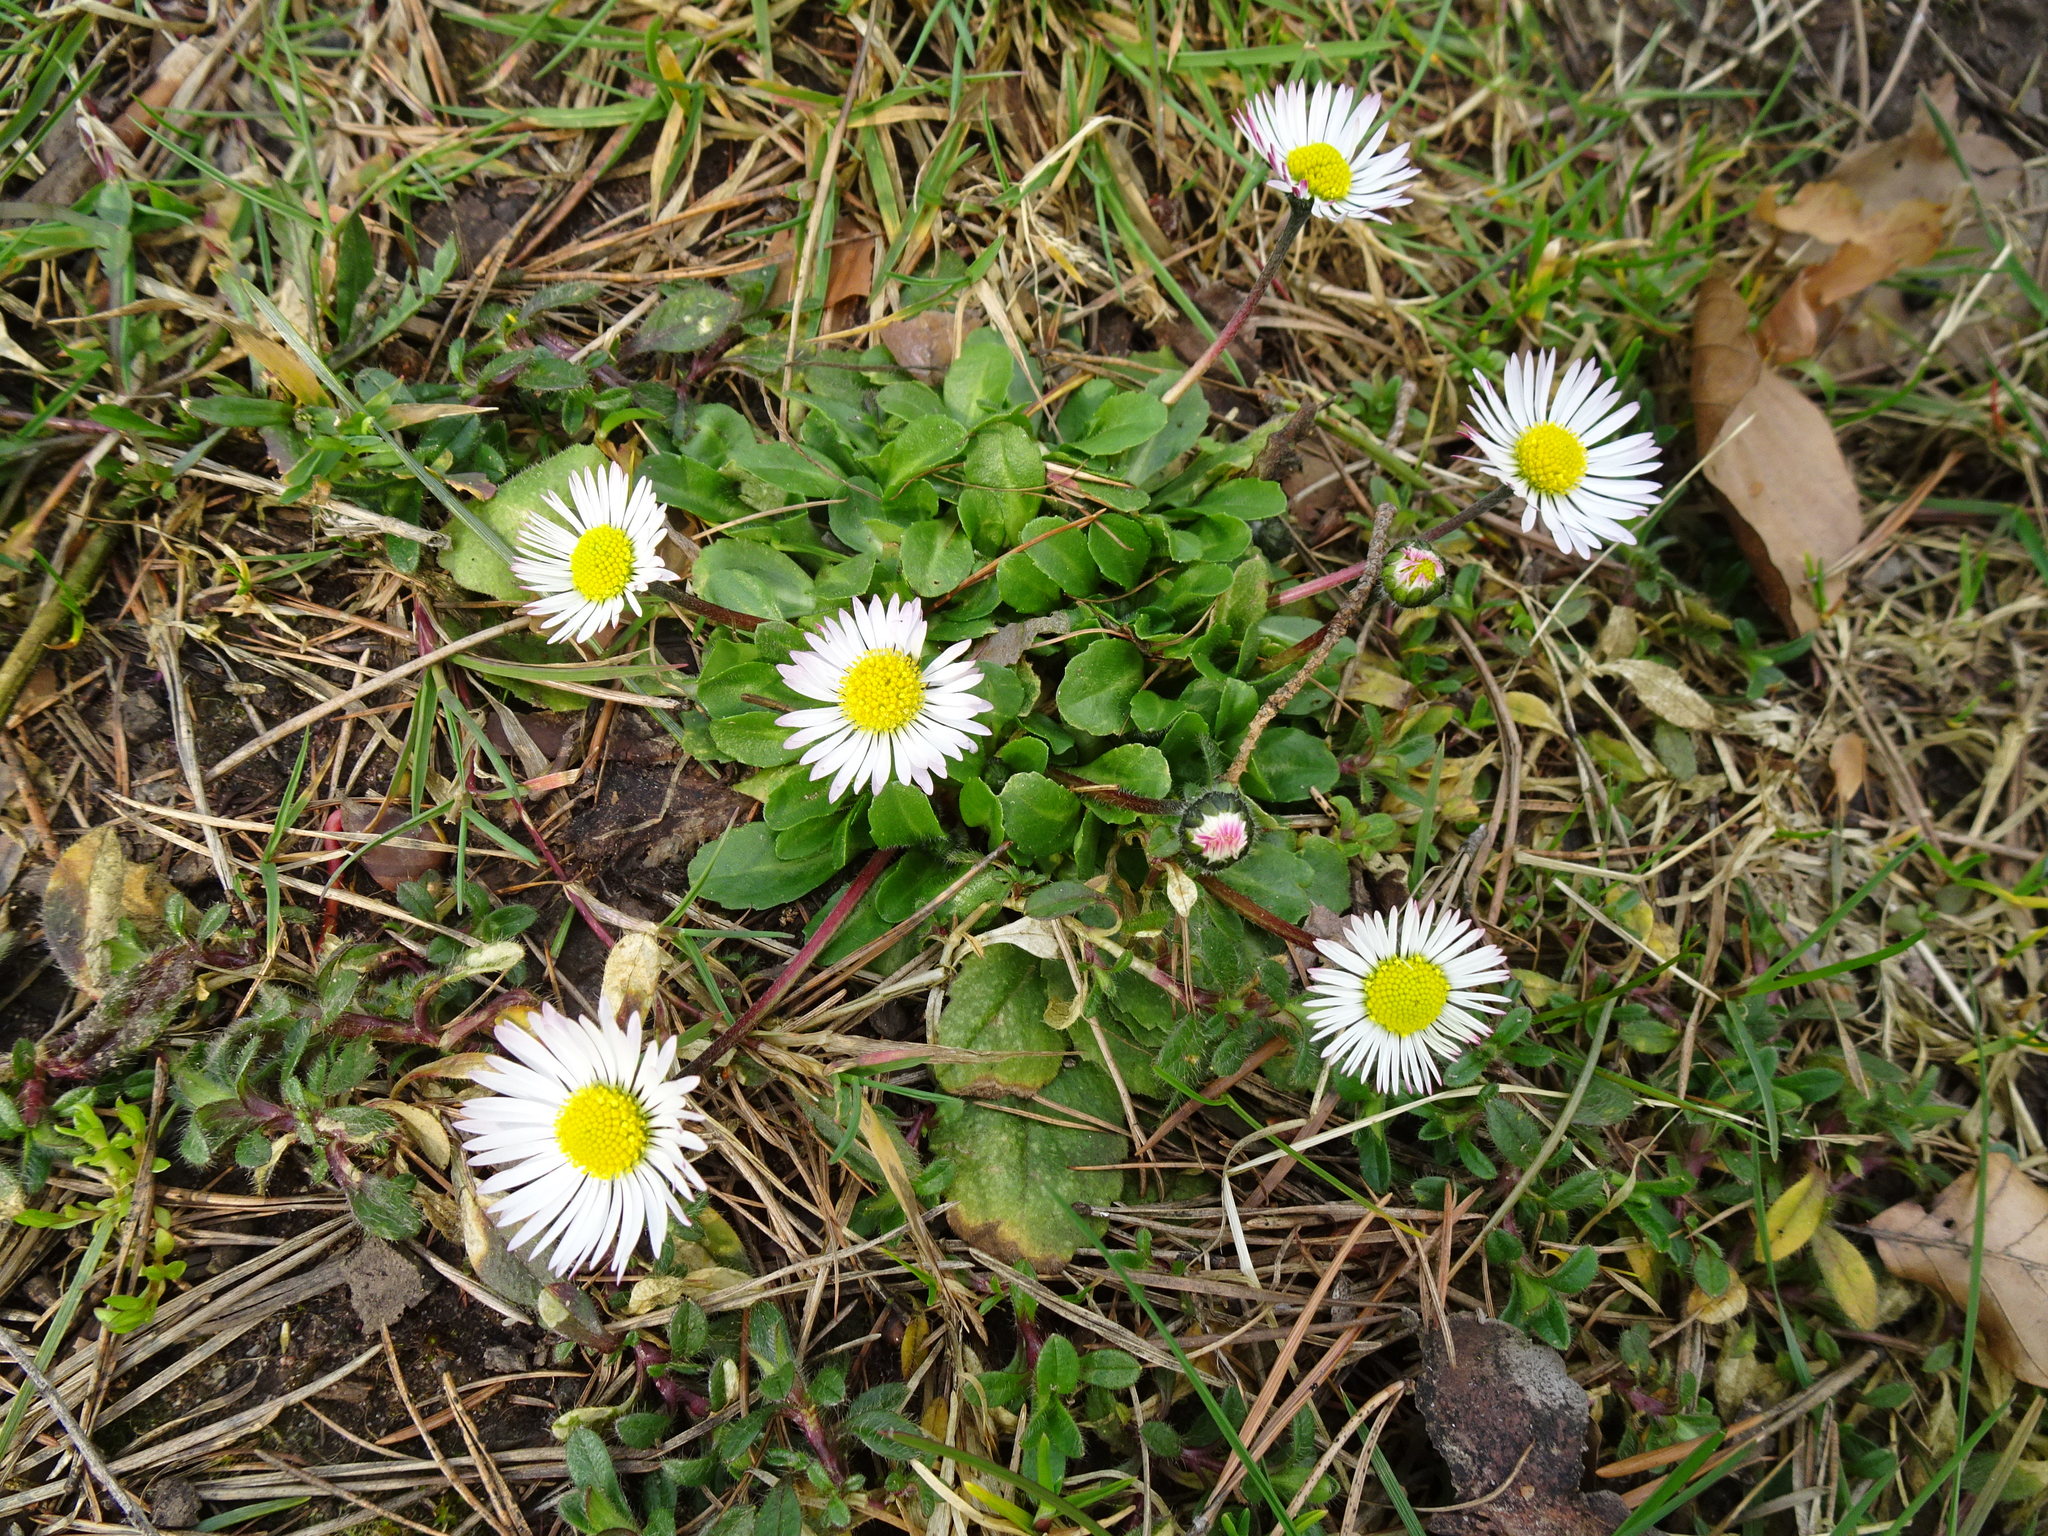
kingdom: Plantae
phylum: Tracheophyta
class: Magnoliopsida
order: Asterales
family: Asteraceae
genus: Bellis
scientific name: Bellis perennis
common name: Lawndaisy
